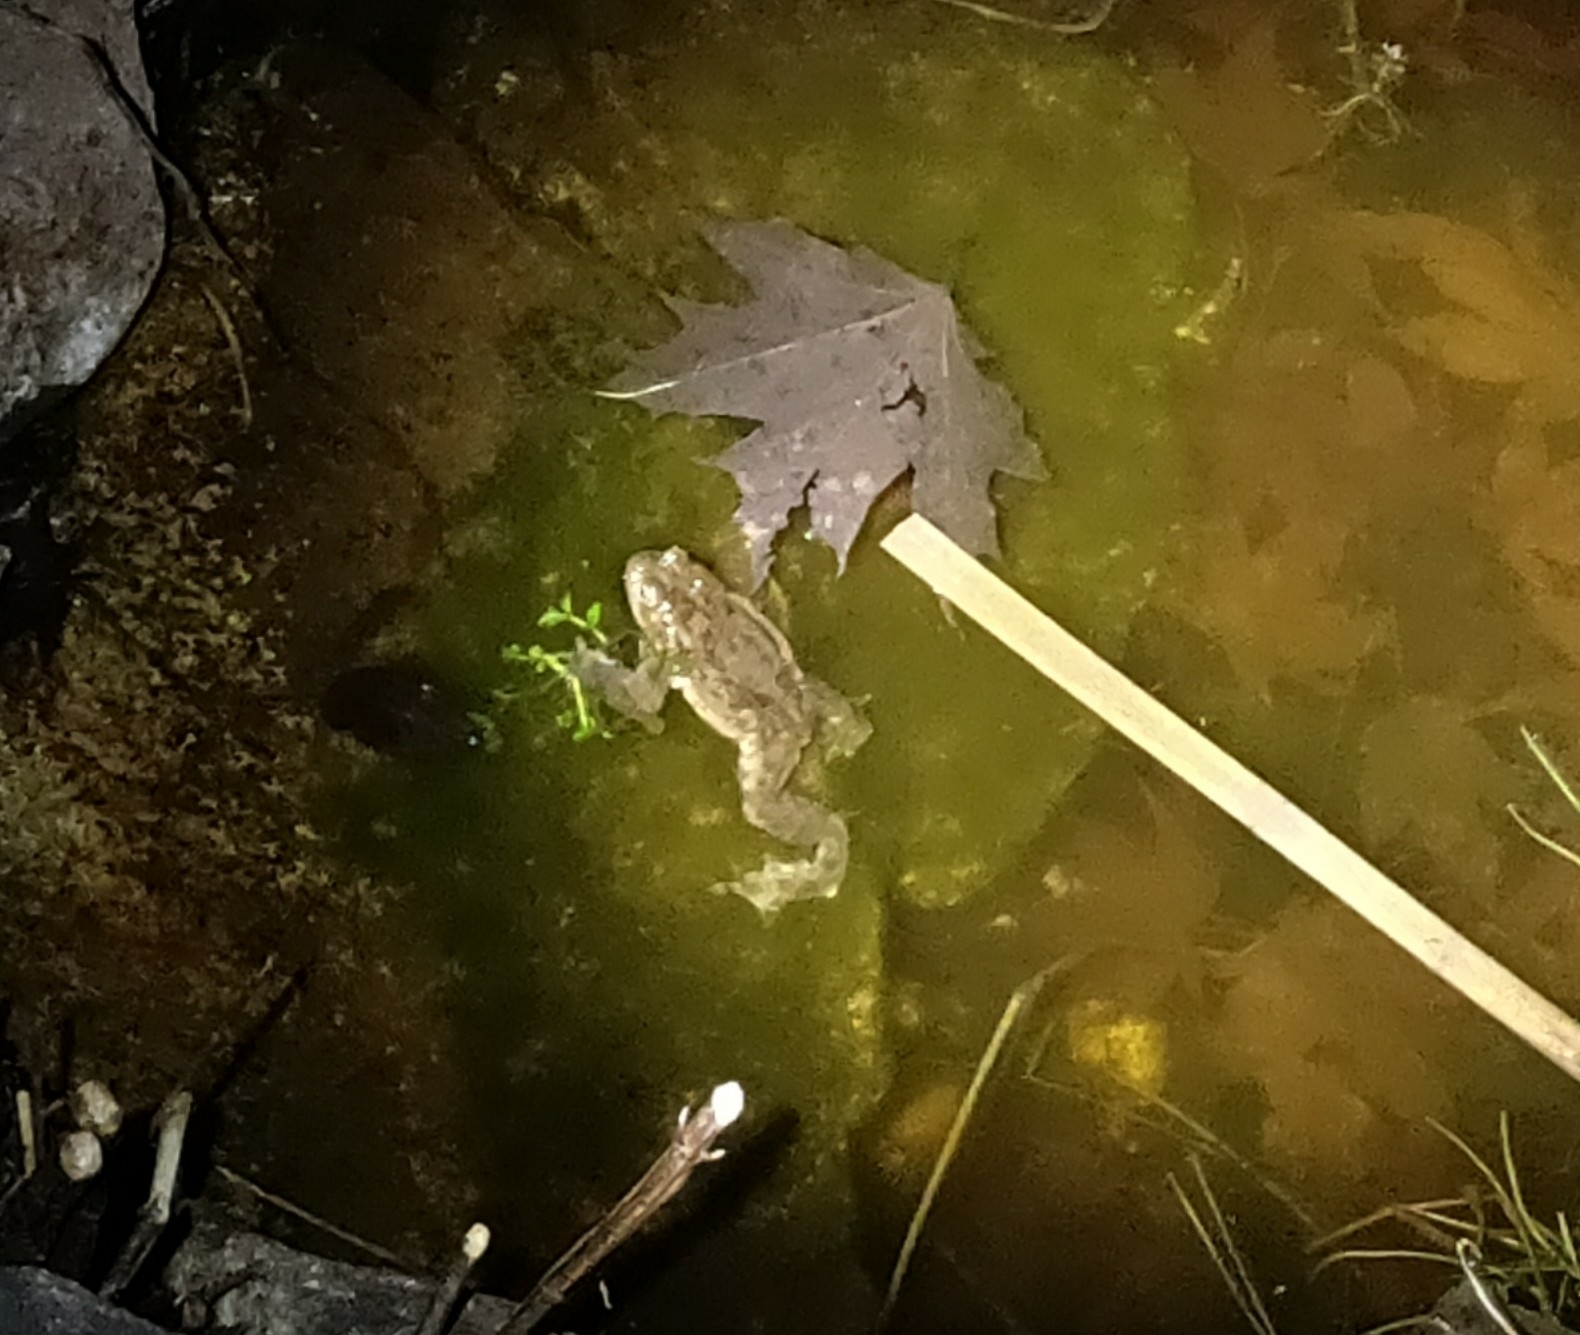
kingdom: Animalia
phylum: Chordata
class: Amphibia
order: Anura
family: Bufonidae
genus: Bufo
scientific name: Bufo bufo
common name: Common toad
